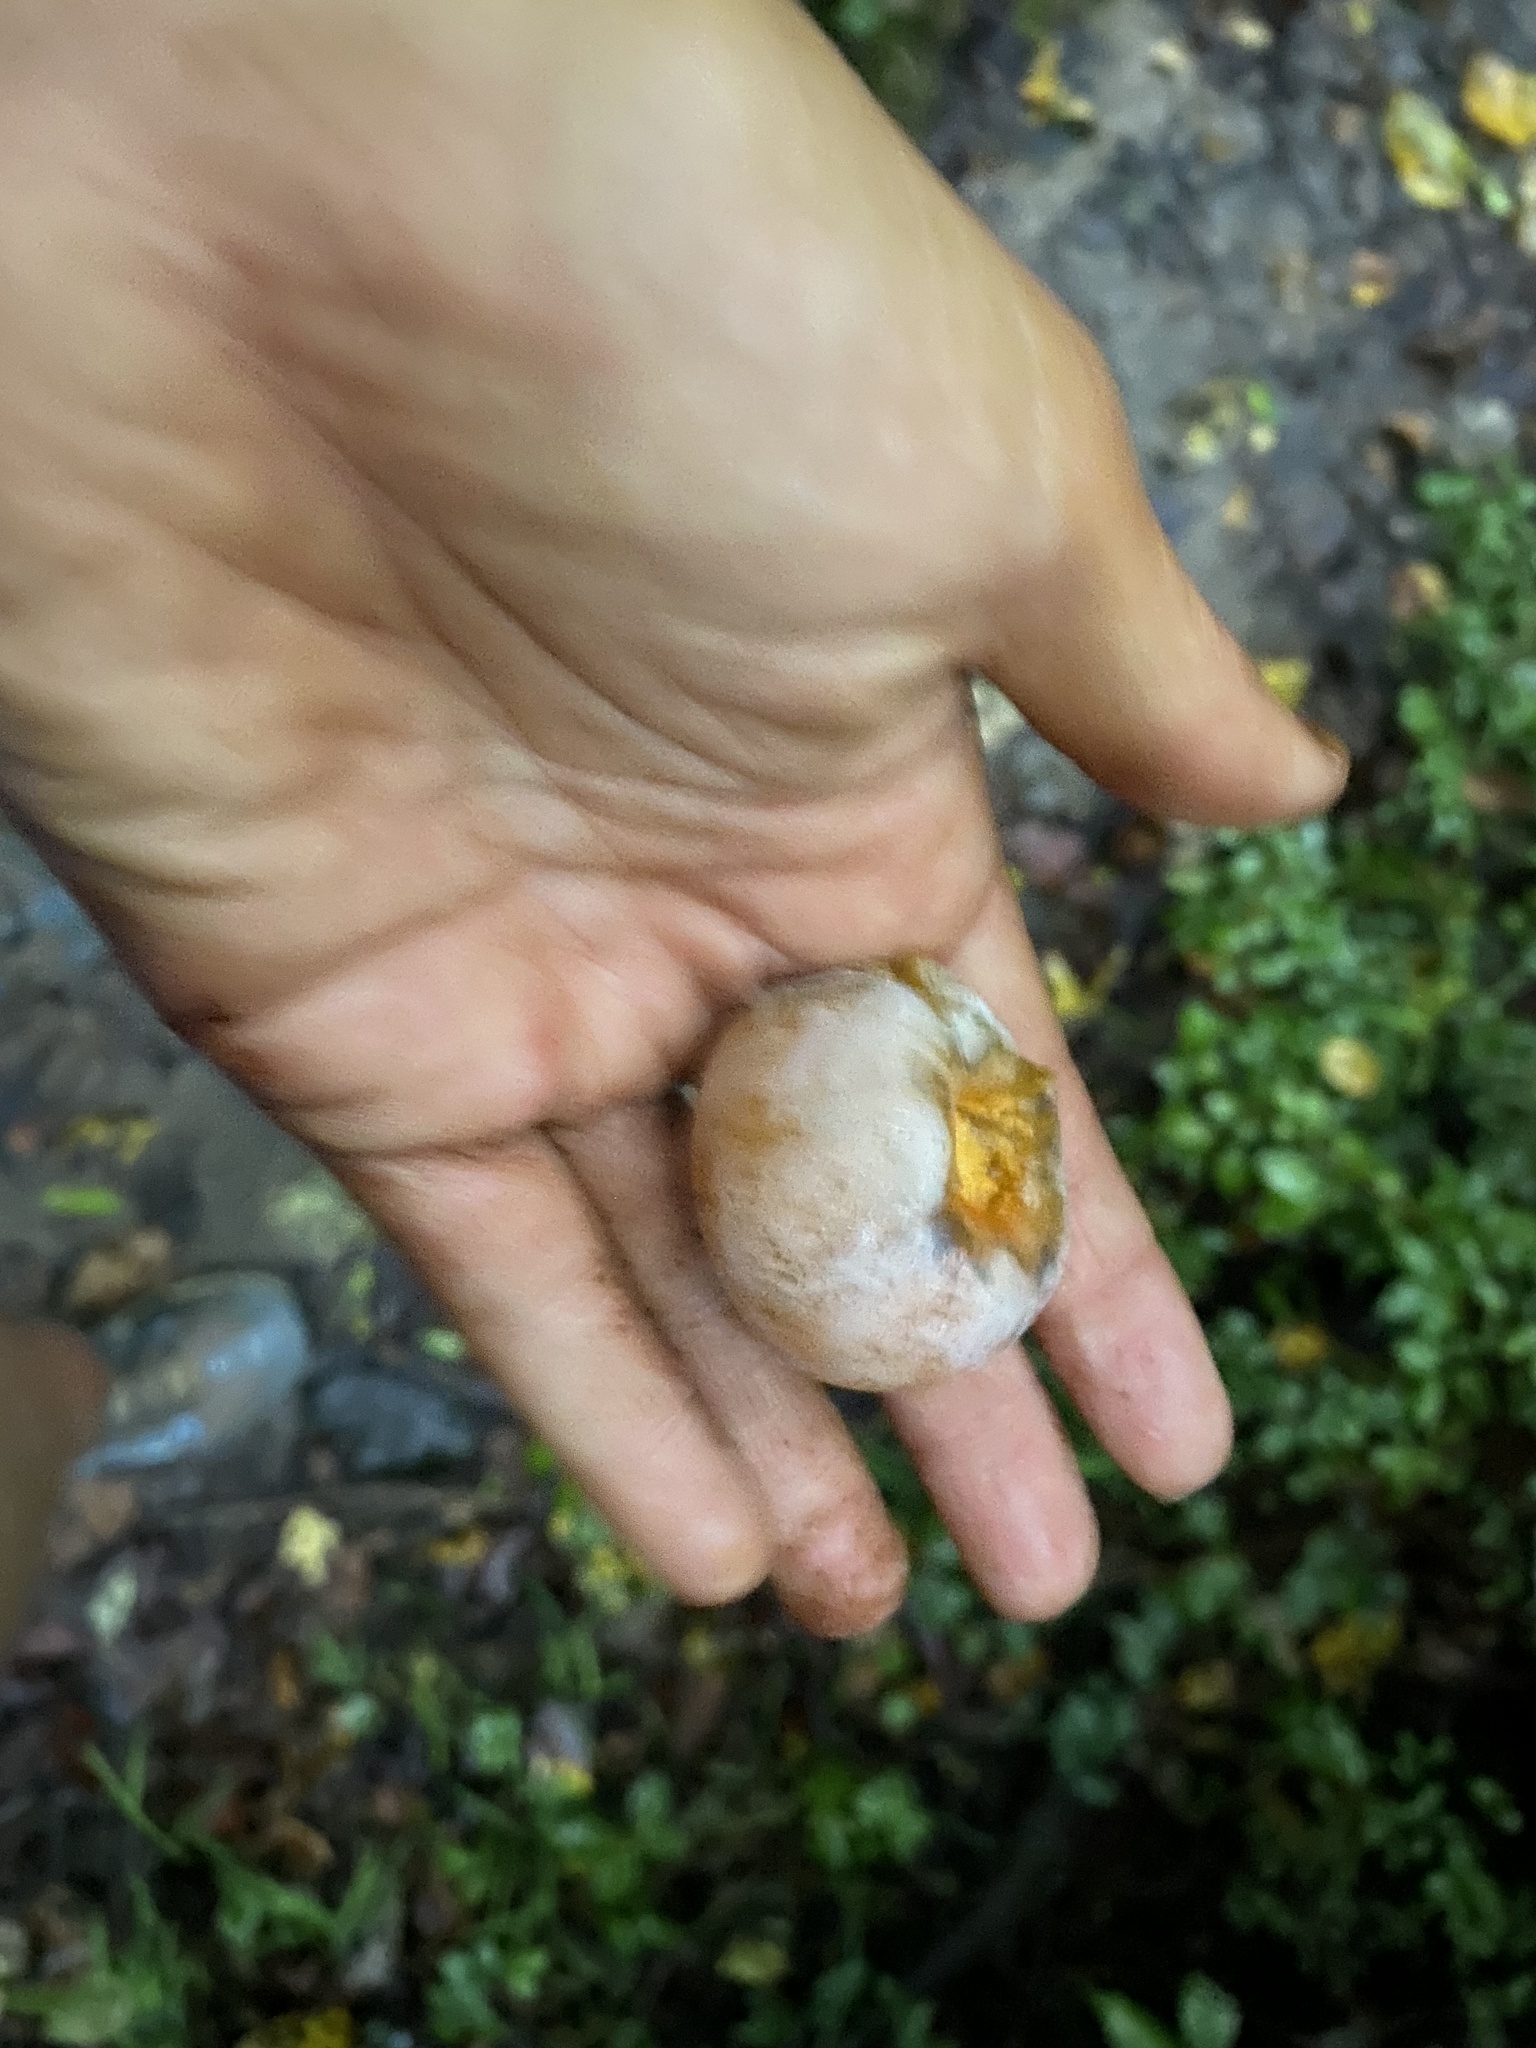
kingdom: Plantae
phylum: Tracheophyta
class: Magnoliopsida
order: Ericales
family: Ebenaceae
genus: Diospyros
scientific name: Diospyros virginiana
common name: Persimmon
